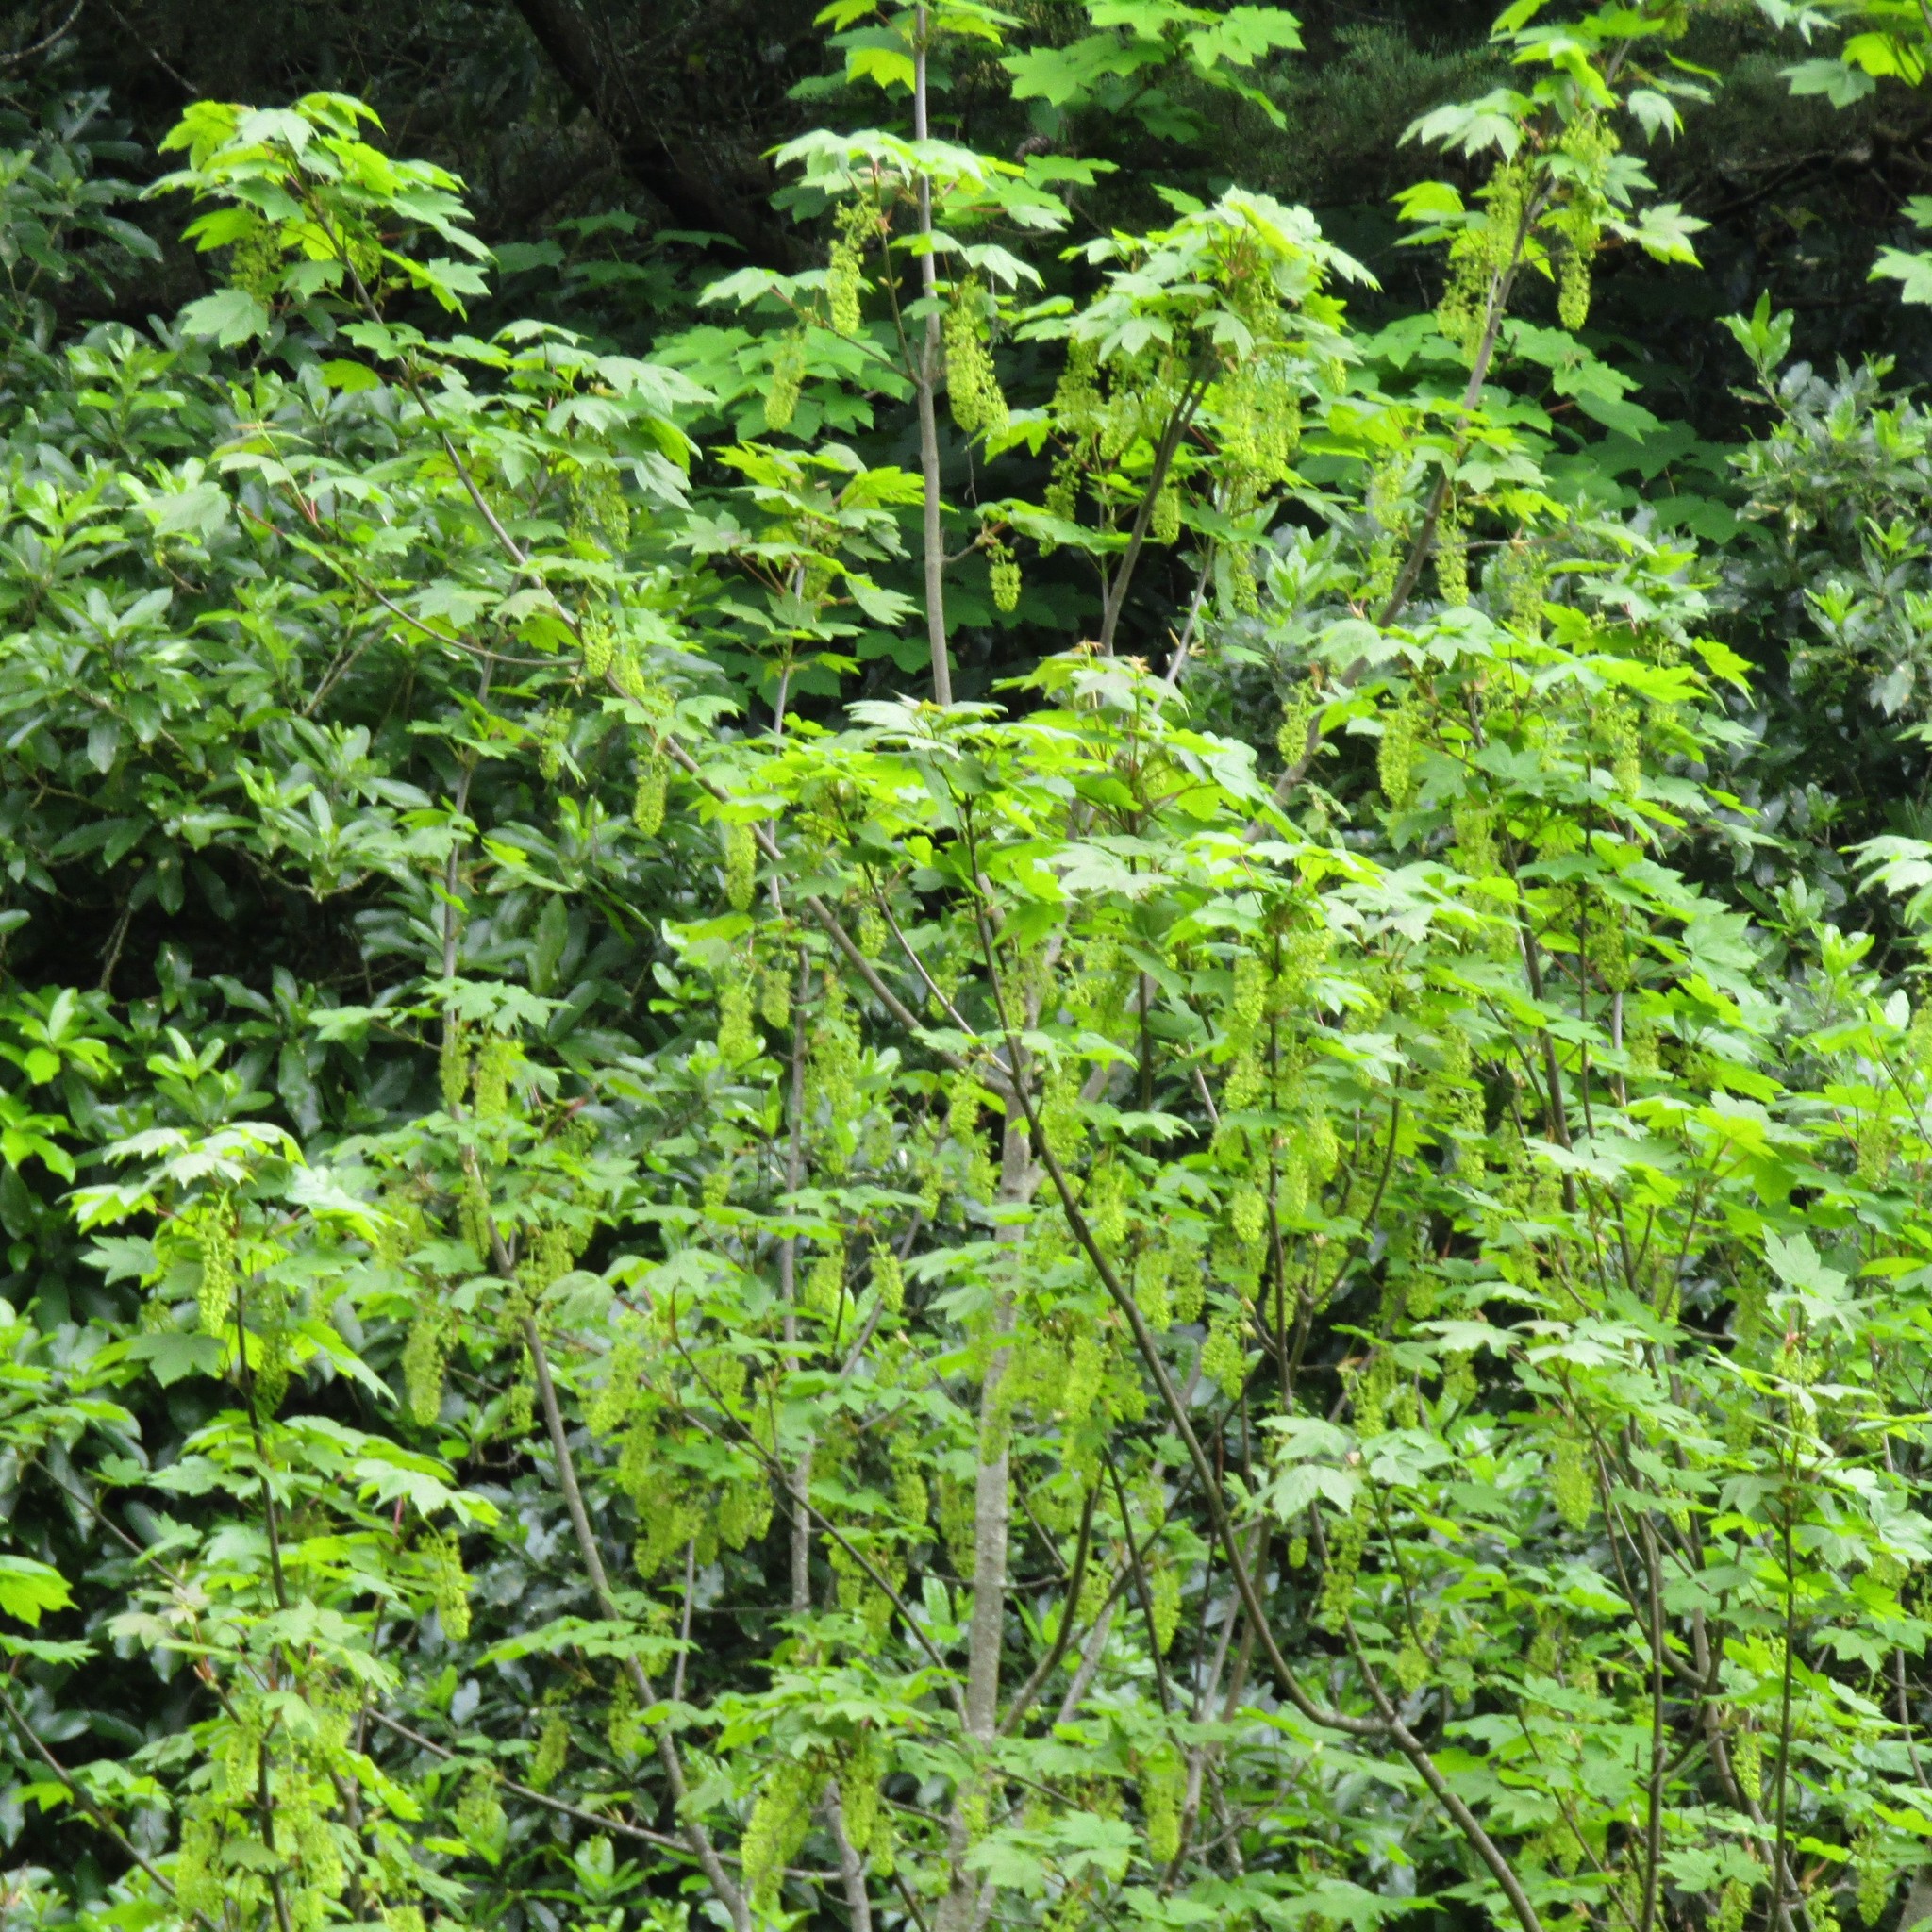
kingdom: Plantae
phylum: Tracheophyta
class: Magnoliopsida
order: Sapindales
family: Sapindaceae
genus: Acer
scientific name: Acer pseudoplatanus
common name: Sycamore
